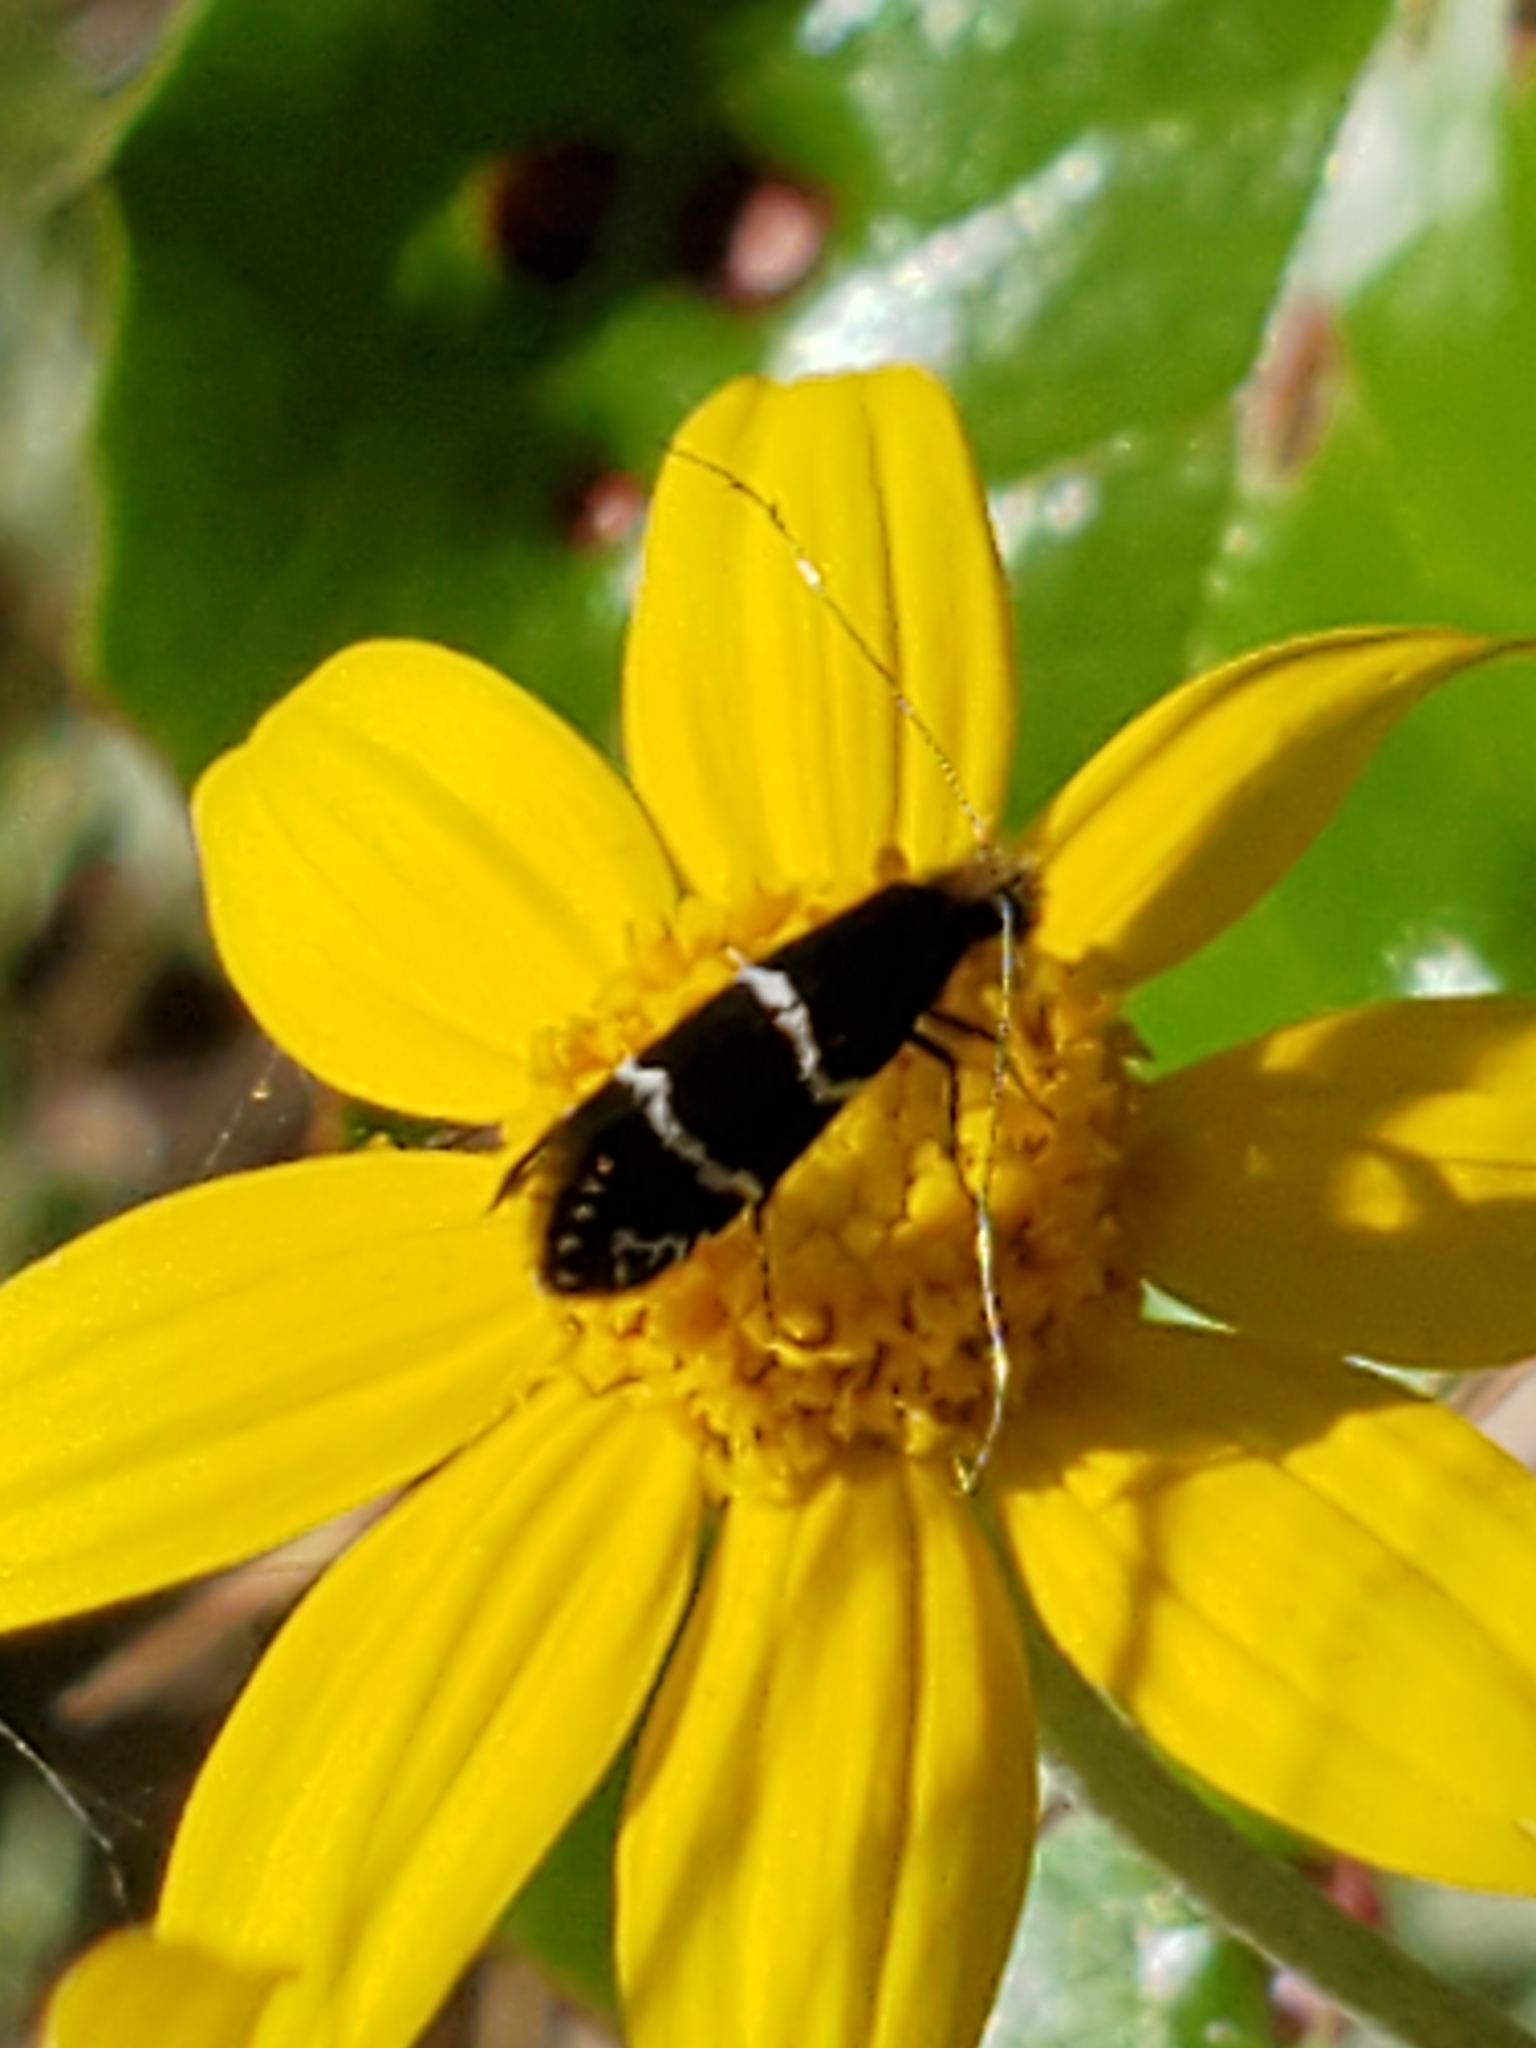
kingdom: Animalia
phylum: Arthropoda
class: Insecta
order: Lepidoptera
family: Adelidae
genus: Adela
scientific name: Adela septentrionella
